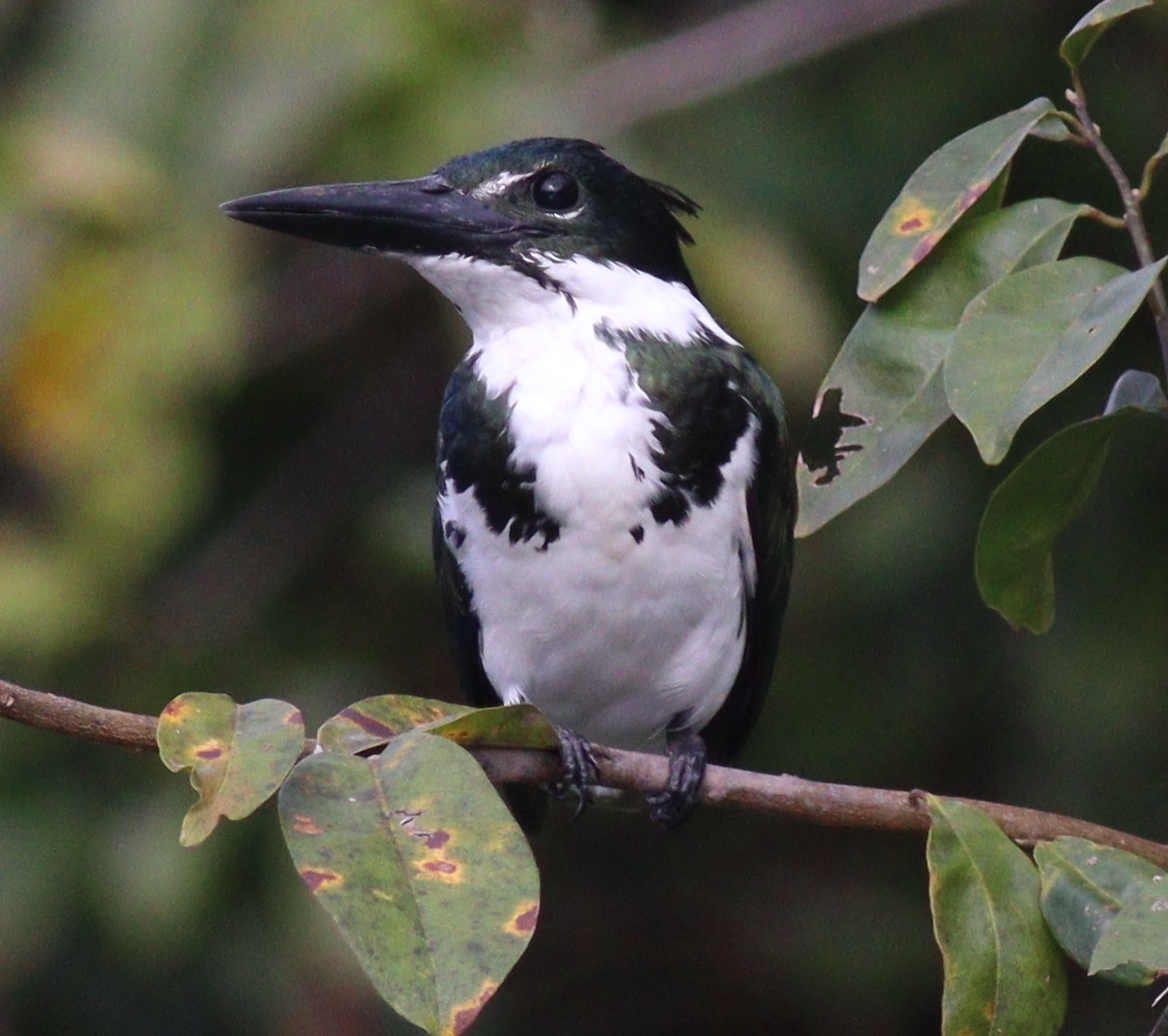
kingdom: Animalia
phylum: Chordata
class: Aves
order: Coraciiformes
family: Alcedinidae
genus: Chloroceryle
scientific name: Chloroceryle amazona
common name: Amazon kingfisher
